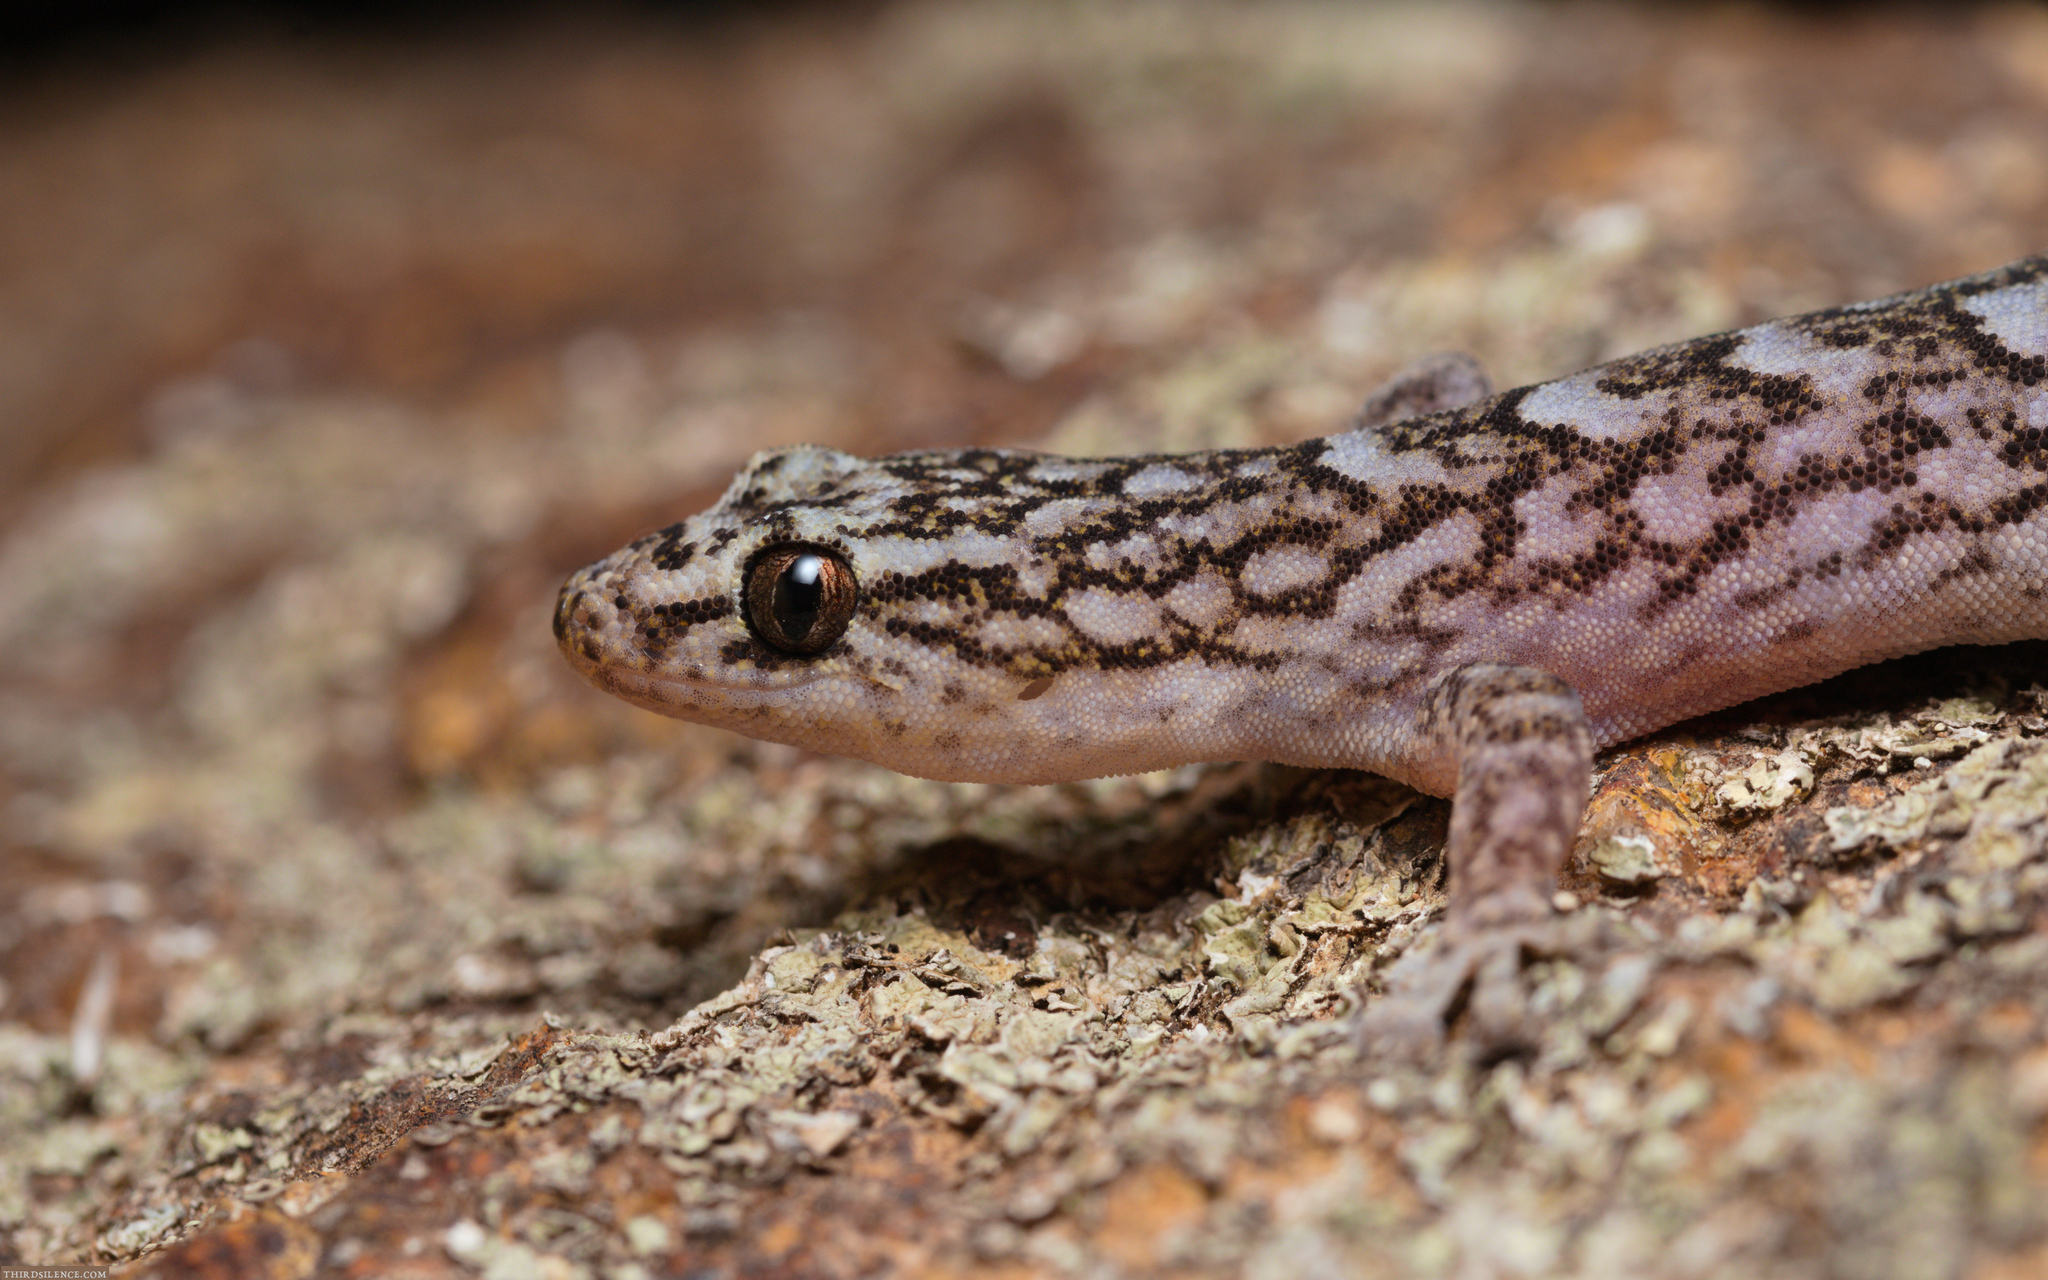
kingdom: Animalia
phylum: Chordata
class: Squamata
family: Gekkonidae
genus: Christinus
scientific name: Christinus marmoratus
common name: Marbled gecko
